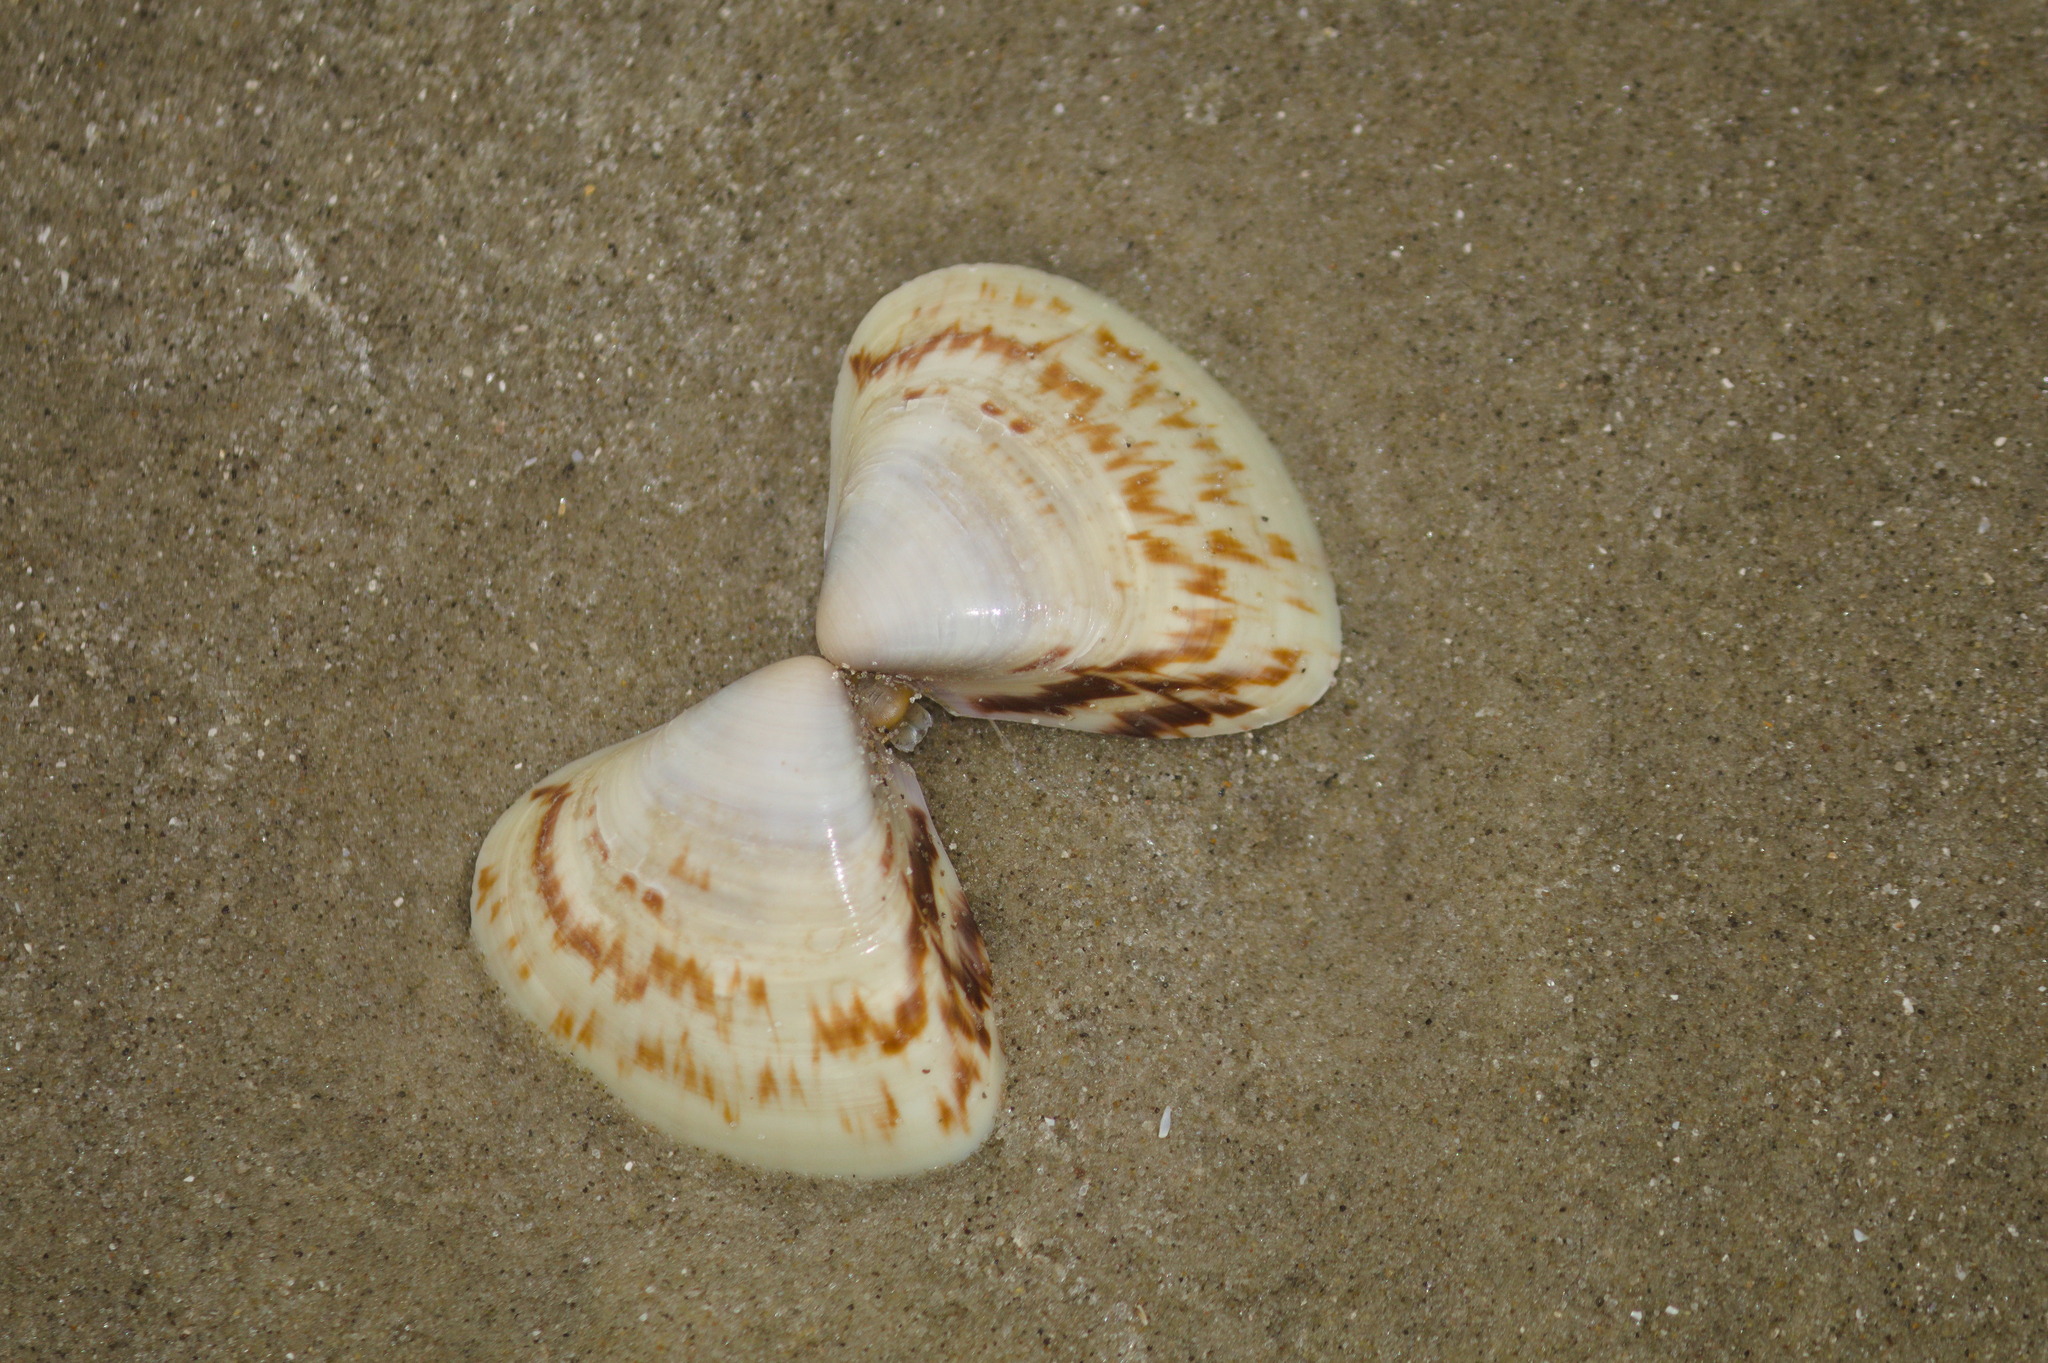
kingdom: Animalia
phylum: Mollusca
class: Bivalvia
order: Venerida
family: Veneridae
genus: Tivela
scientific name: Tivela zonaria
